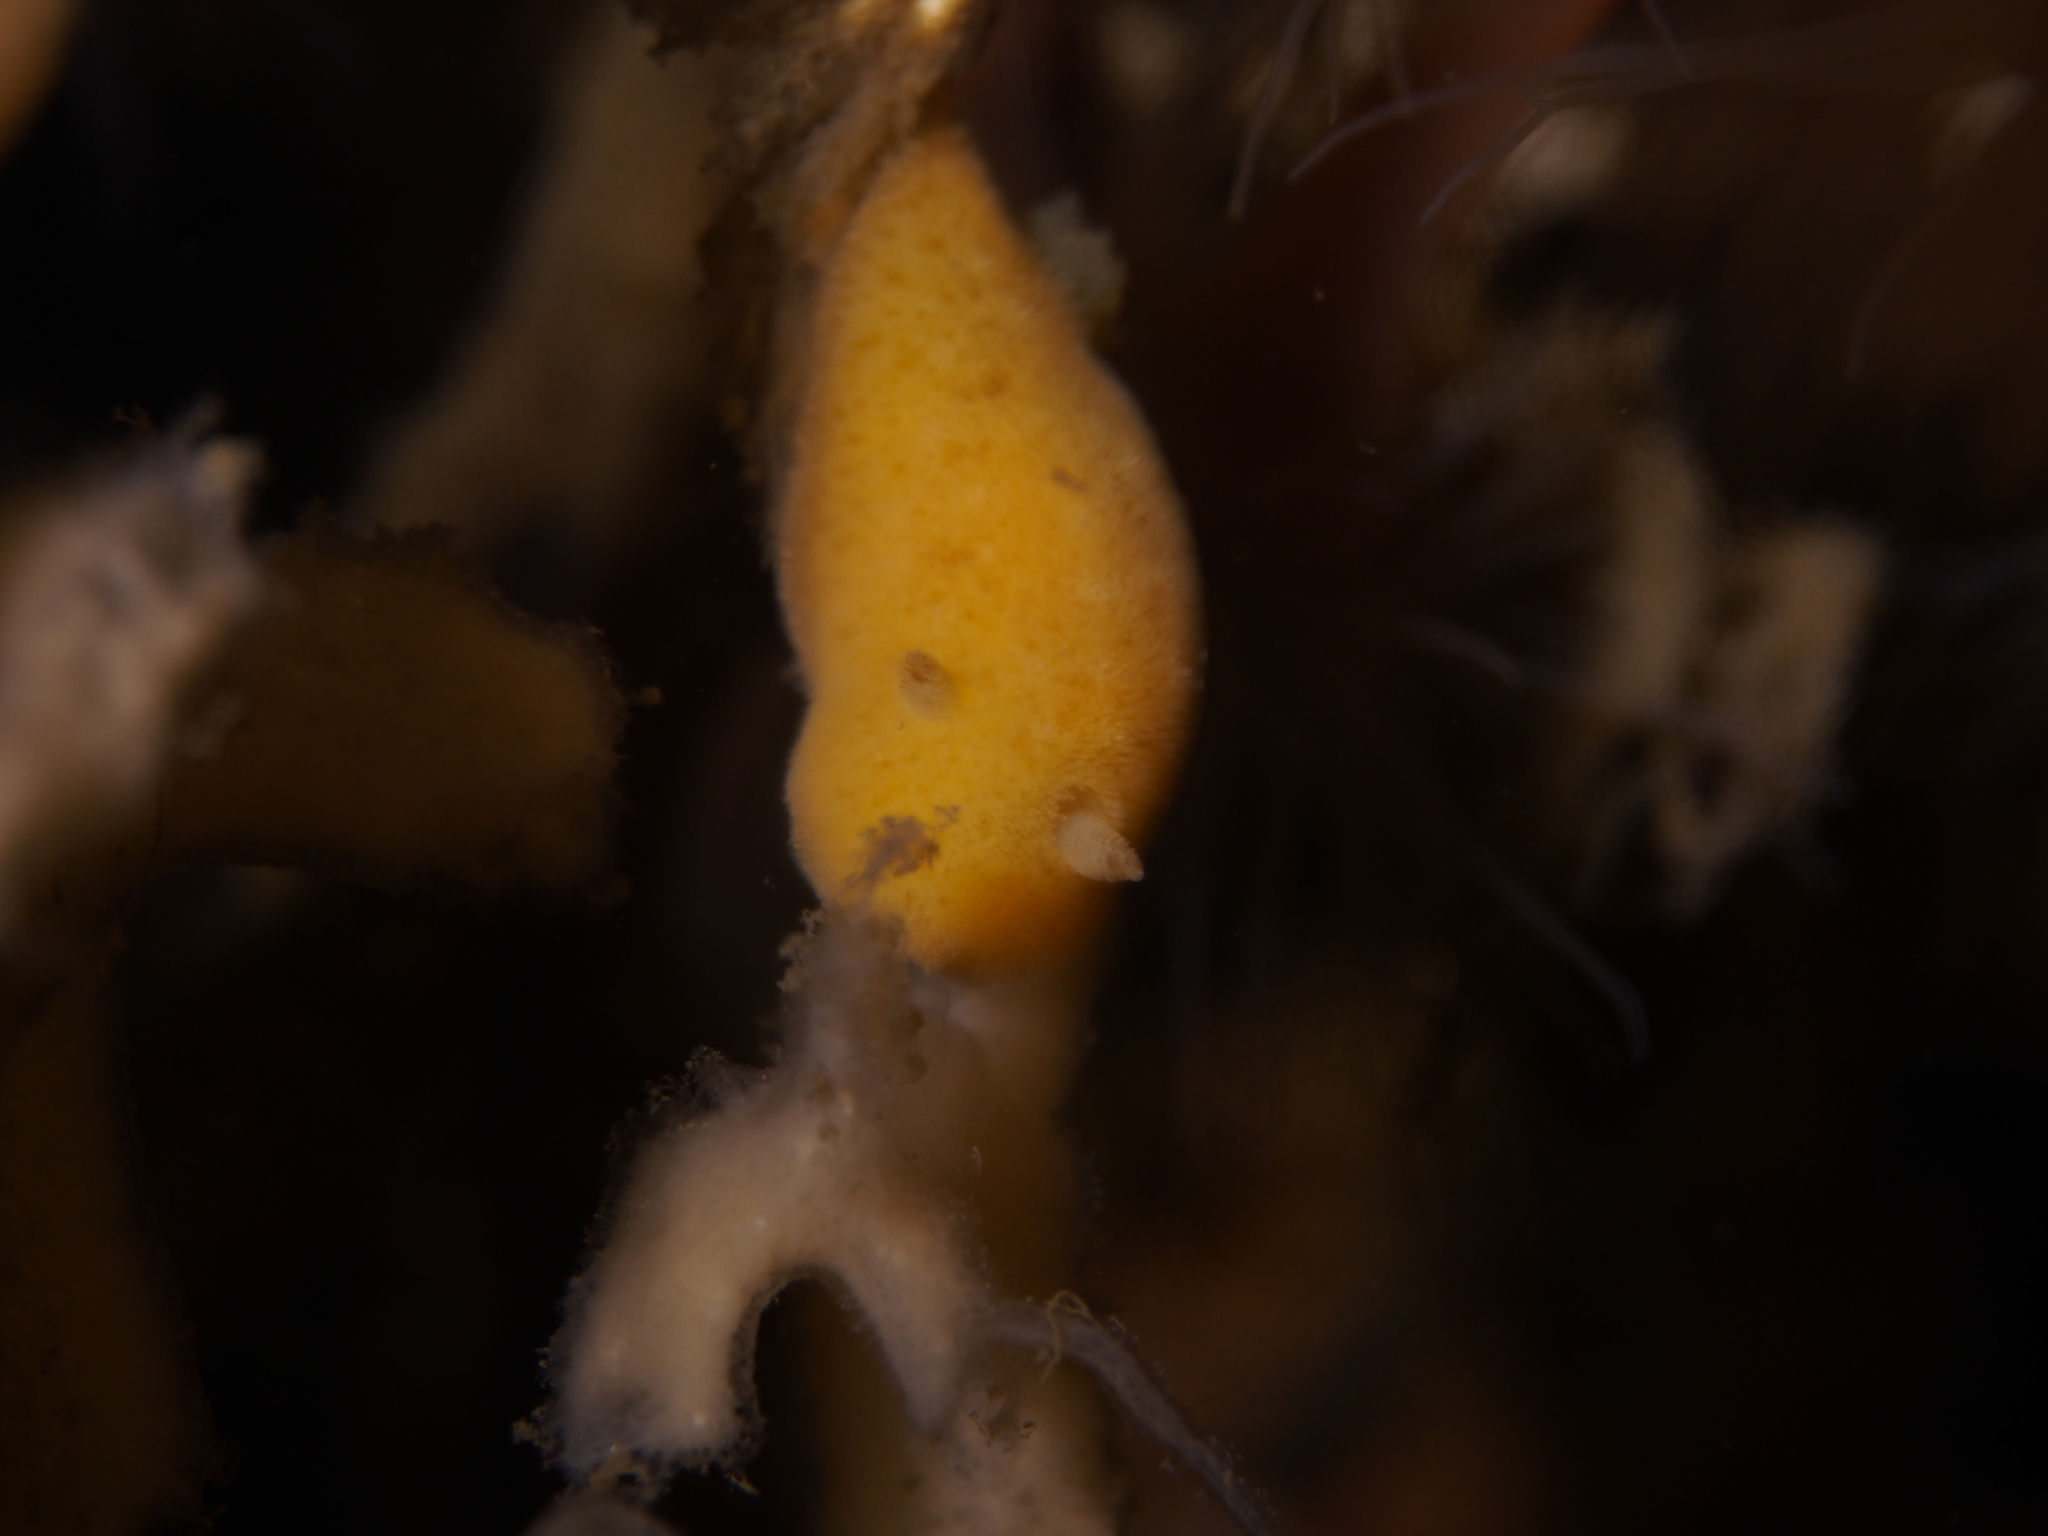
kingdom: Animalia
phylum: Mollusca
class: Gastropoda
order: Nudibranchia
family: Discodorididae
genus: Jorunna
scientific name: Jorunna tomentosa
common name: Grey sea slug
